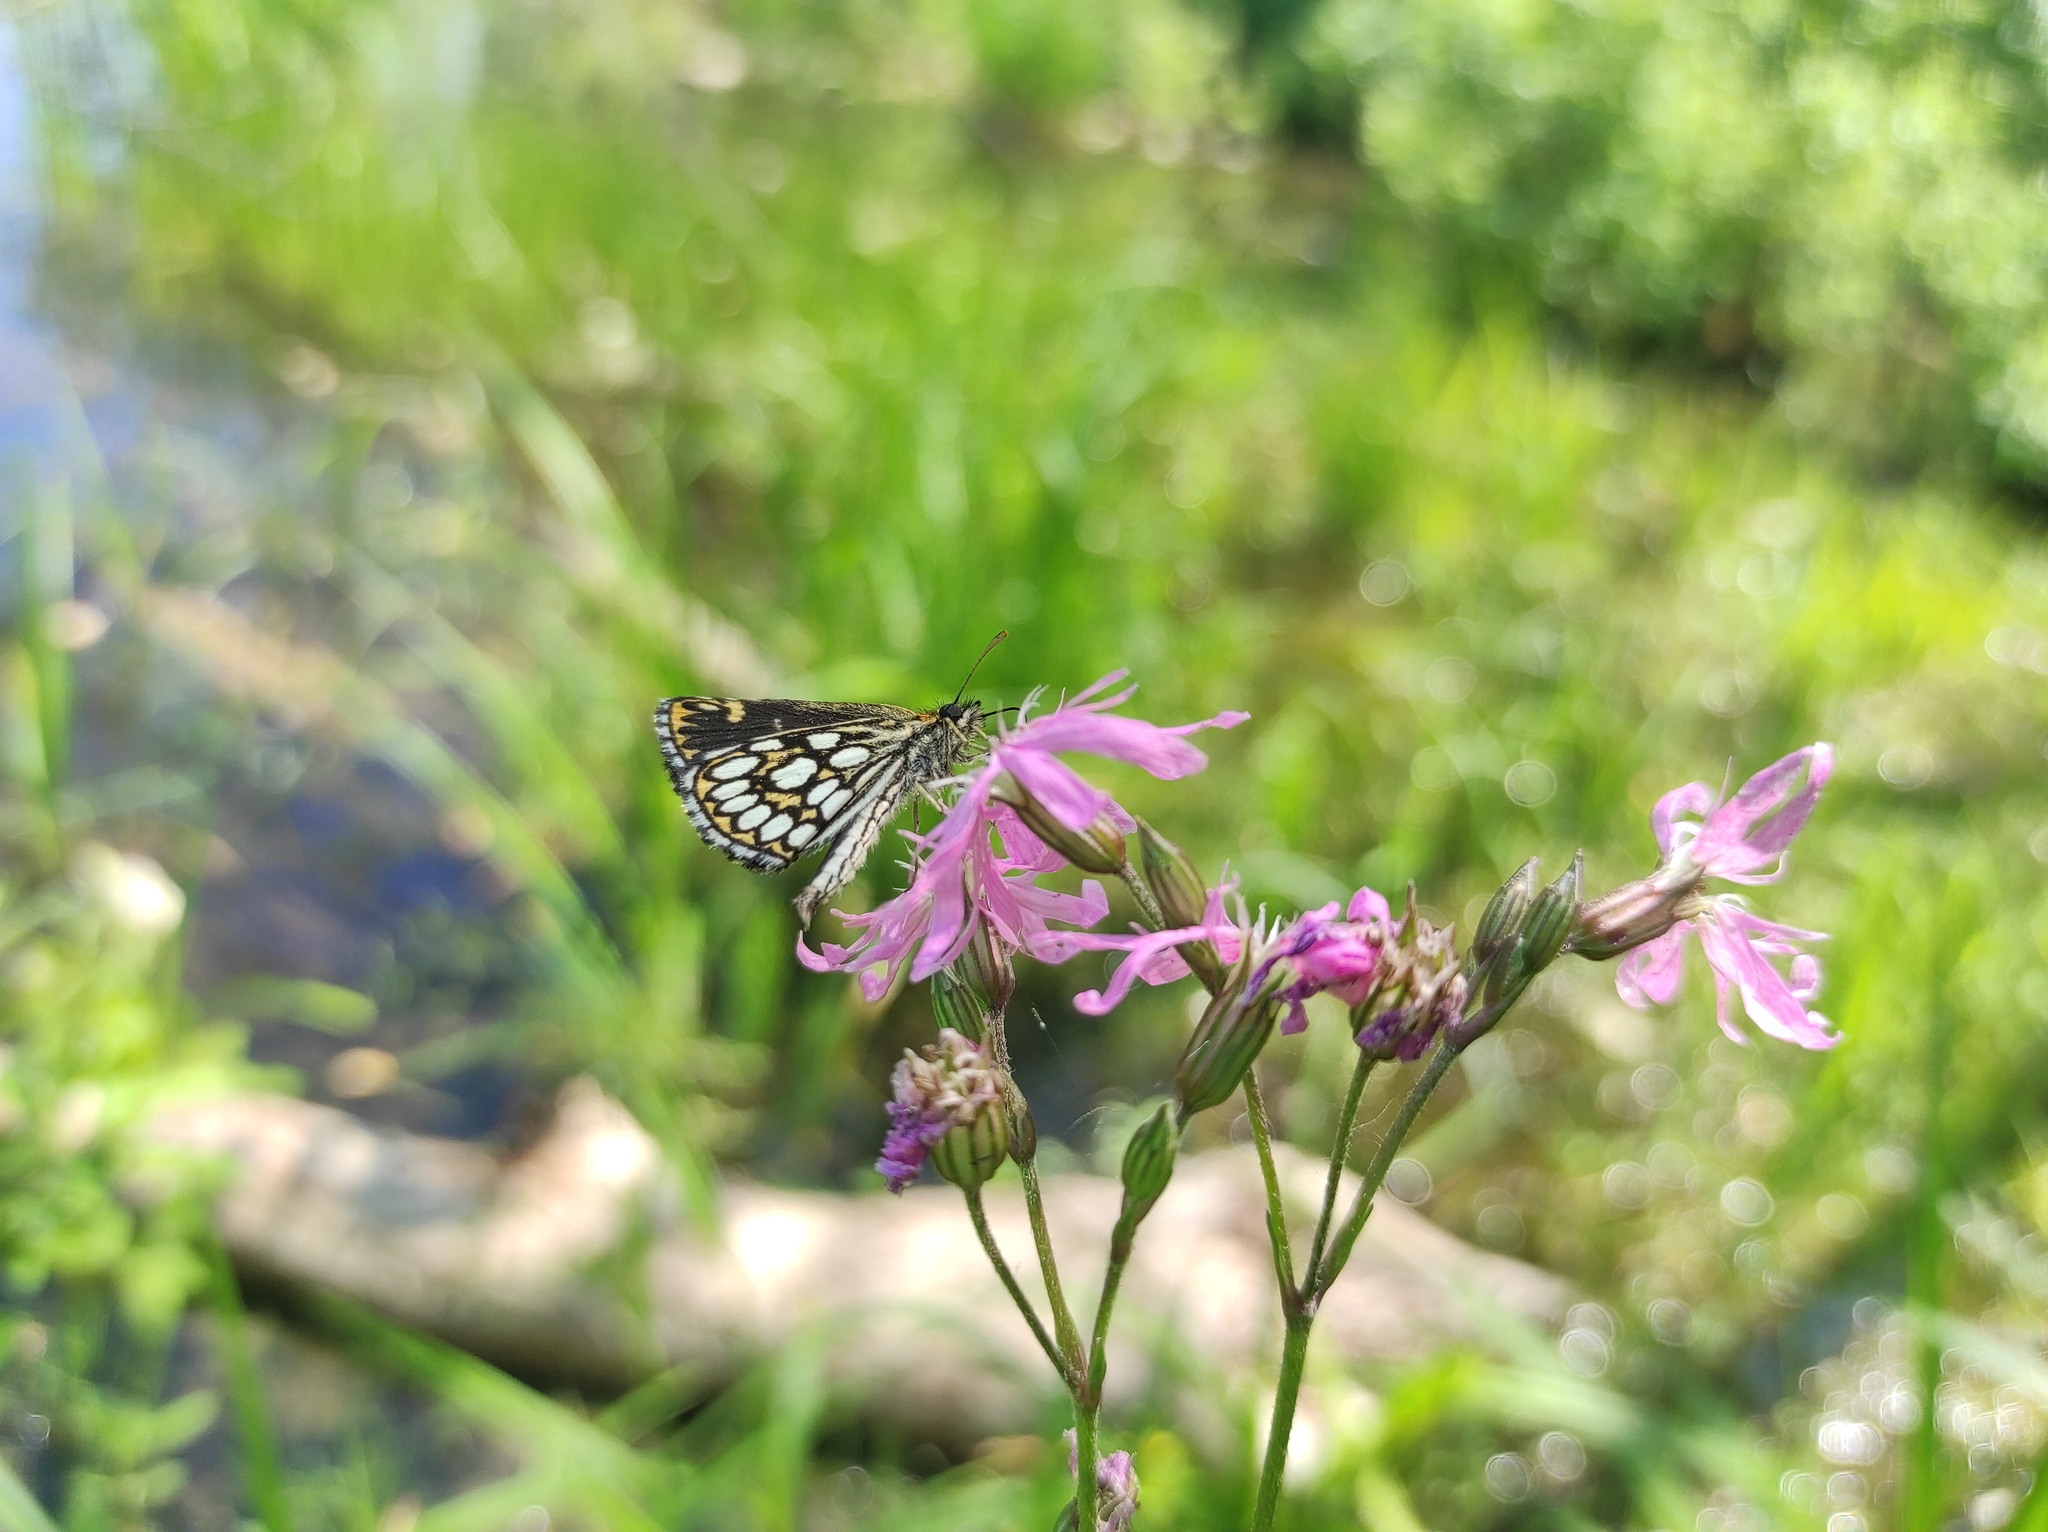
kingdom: Animalia
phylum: Arthropoda
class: Insecta
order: Lepidoptera
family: Hesperiidae
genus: Heteropterus
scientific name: Heteropterus morpheus
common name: Large chequered skipper
